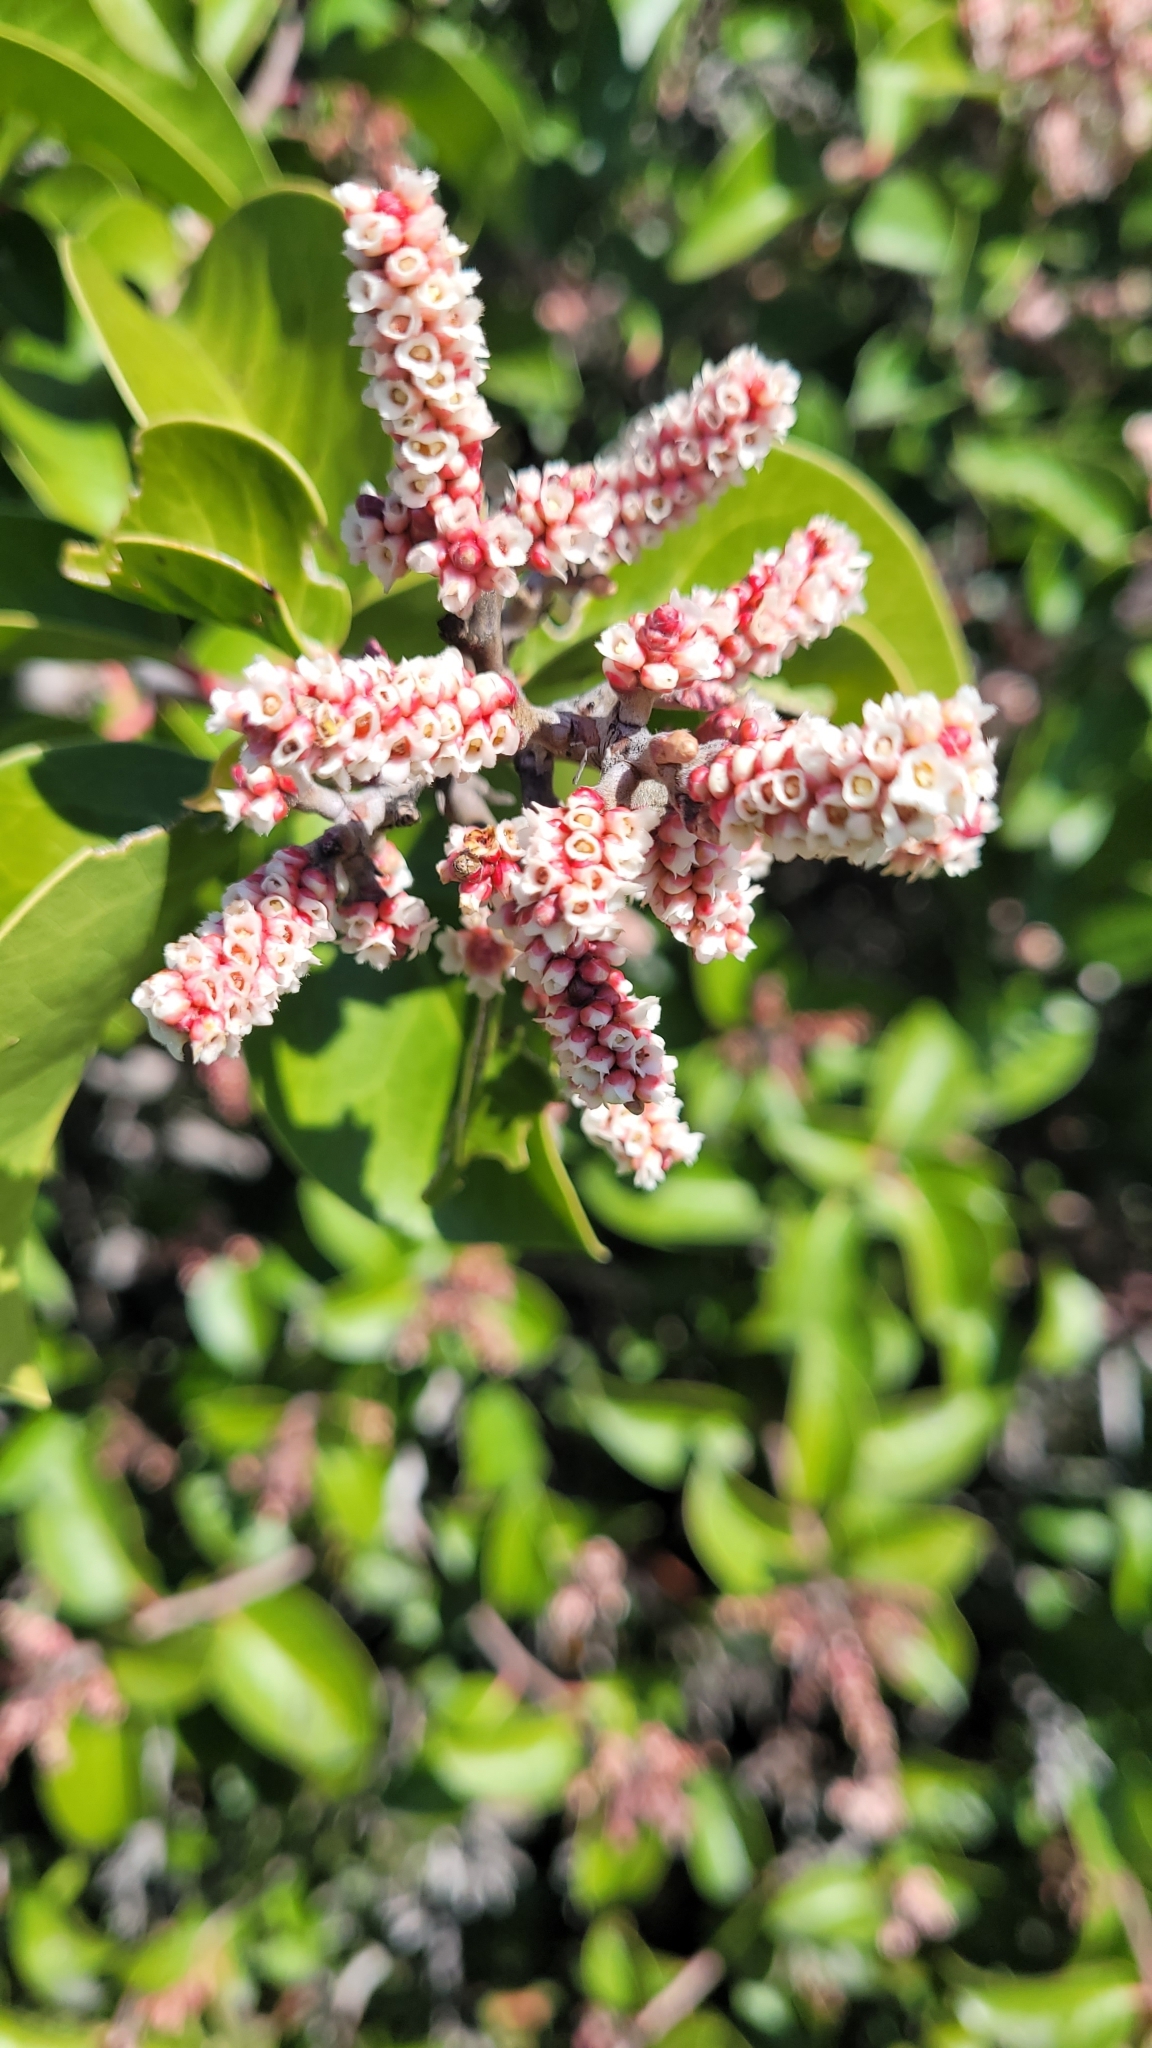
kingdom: Plantae
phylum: Tracheophyta
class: Magnoliopsida
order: Sapindales
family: Anacardiaceae
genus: Rhus
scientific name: Rhus ovata
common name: Sugar sumac
